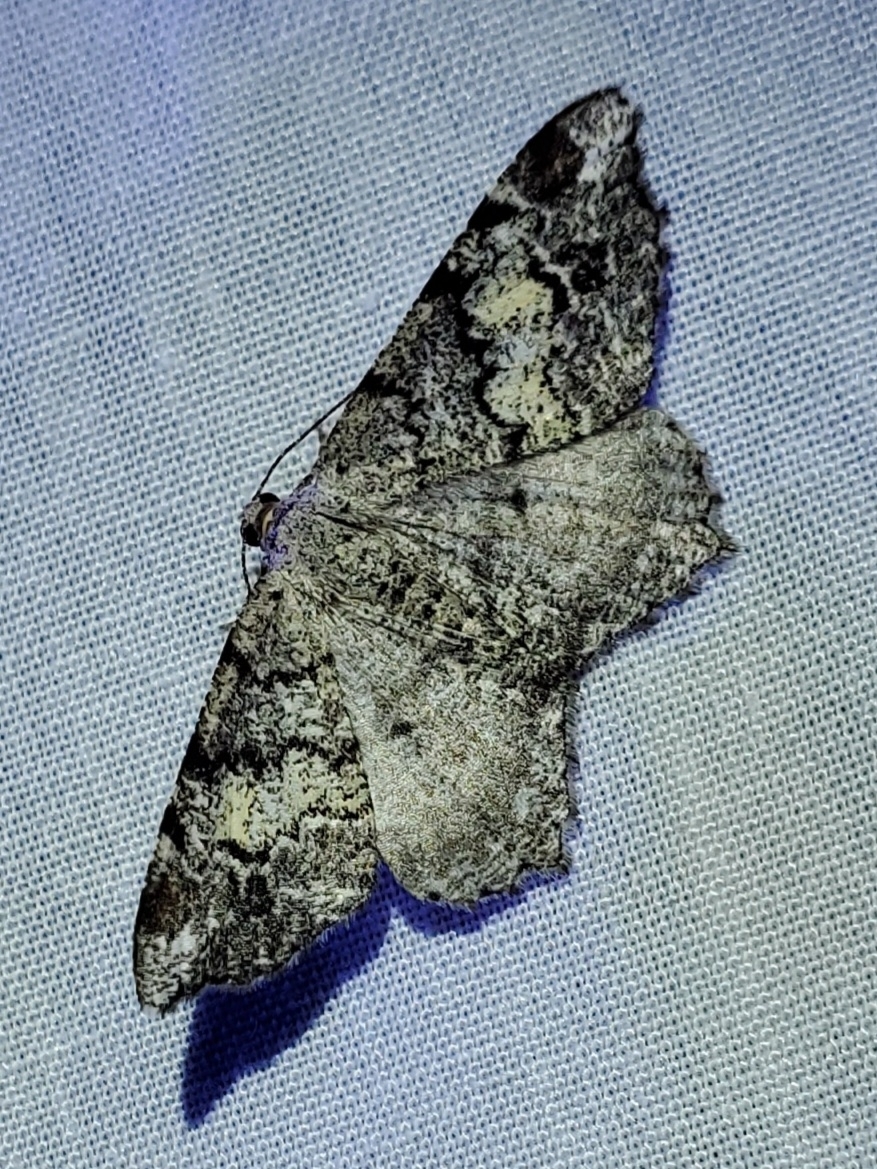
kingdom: Animalia
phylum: Arthropoda
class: Insecta
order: Lepidoptera
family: Geometridae
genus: Macaria
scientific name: Macaria granitata
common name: Granite moth
